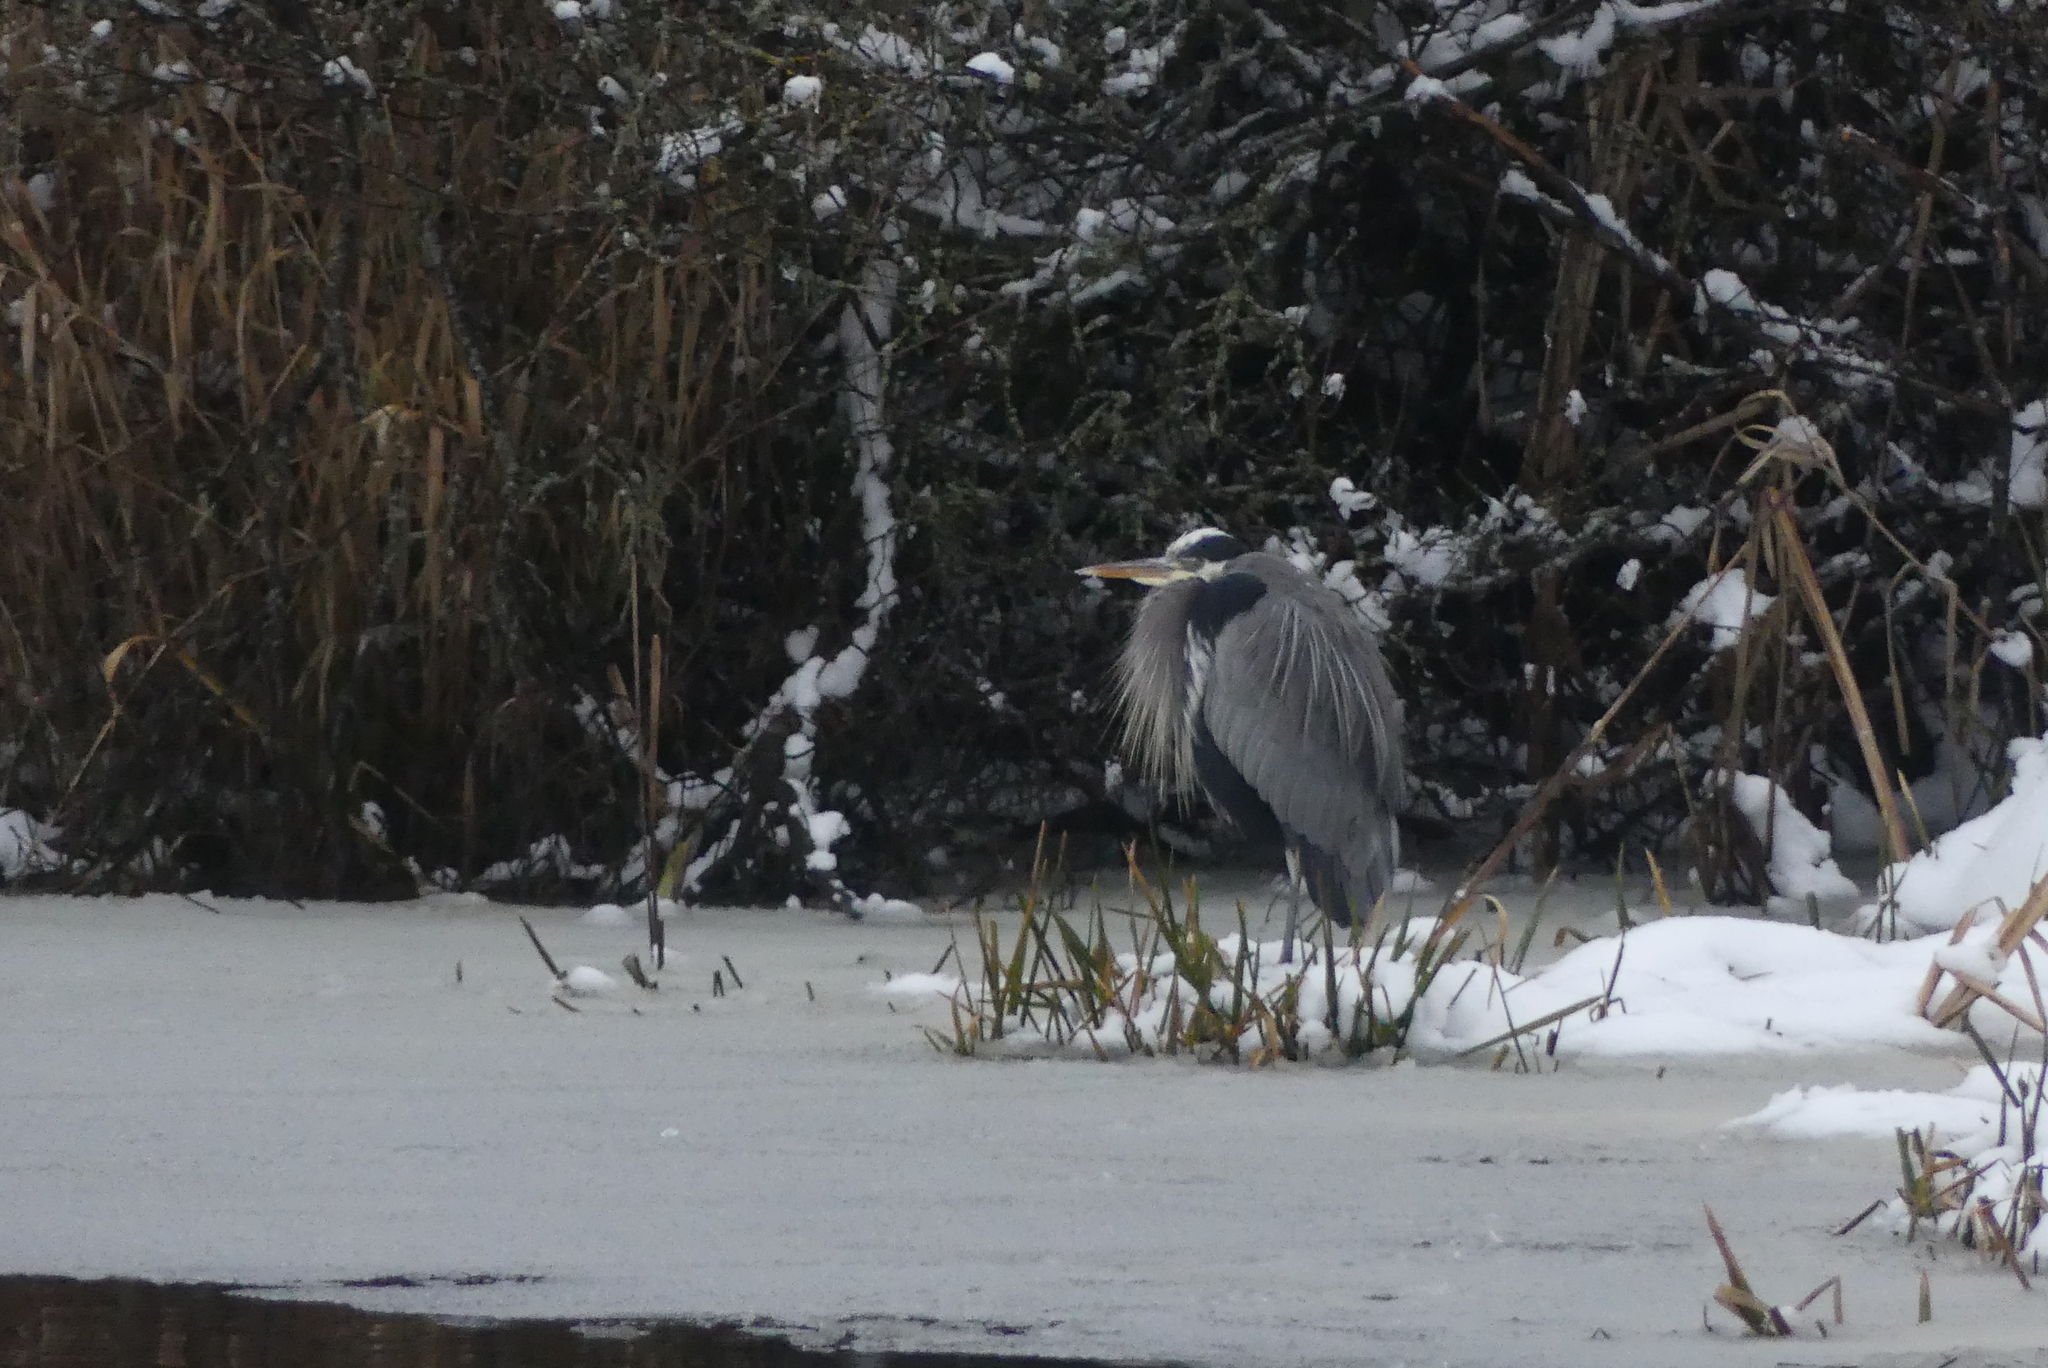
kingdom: Animalia
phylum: Chordata
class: Aves
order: Pelecaniformes
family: Ardeidae
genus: Ardea
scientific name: Ardea herodias
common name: Great blue heron
